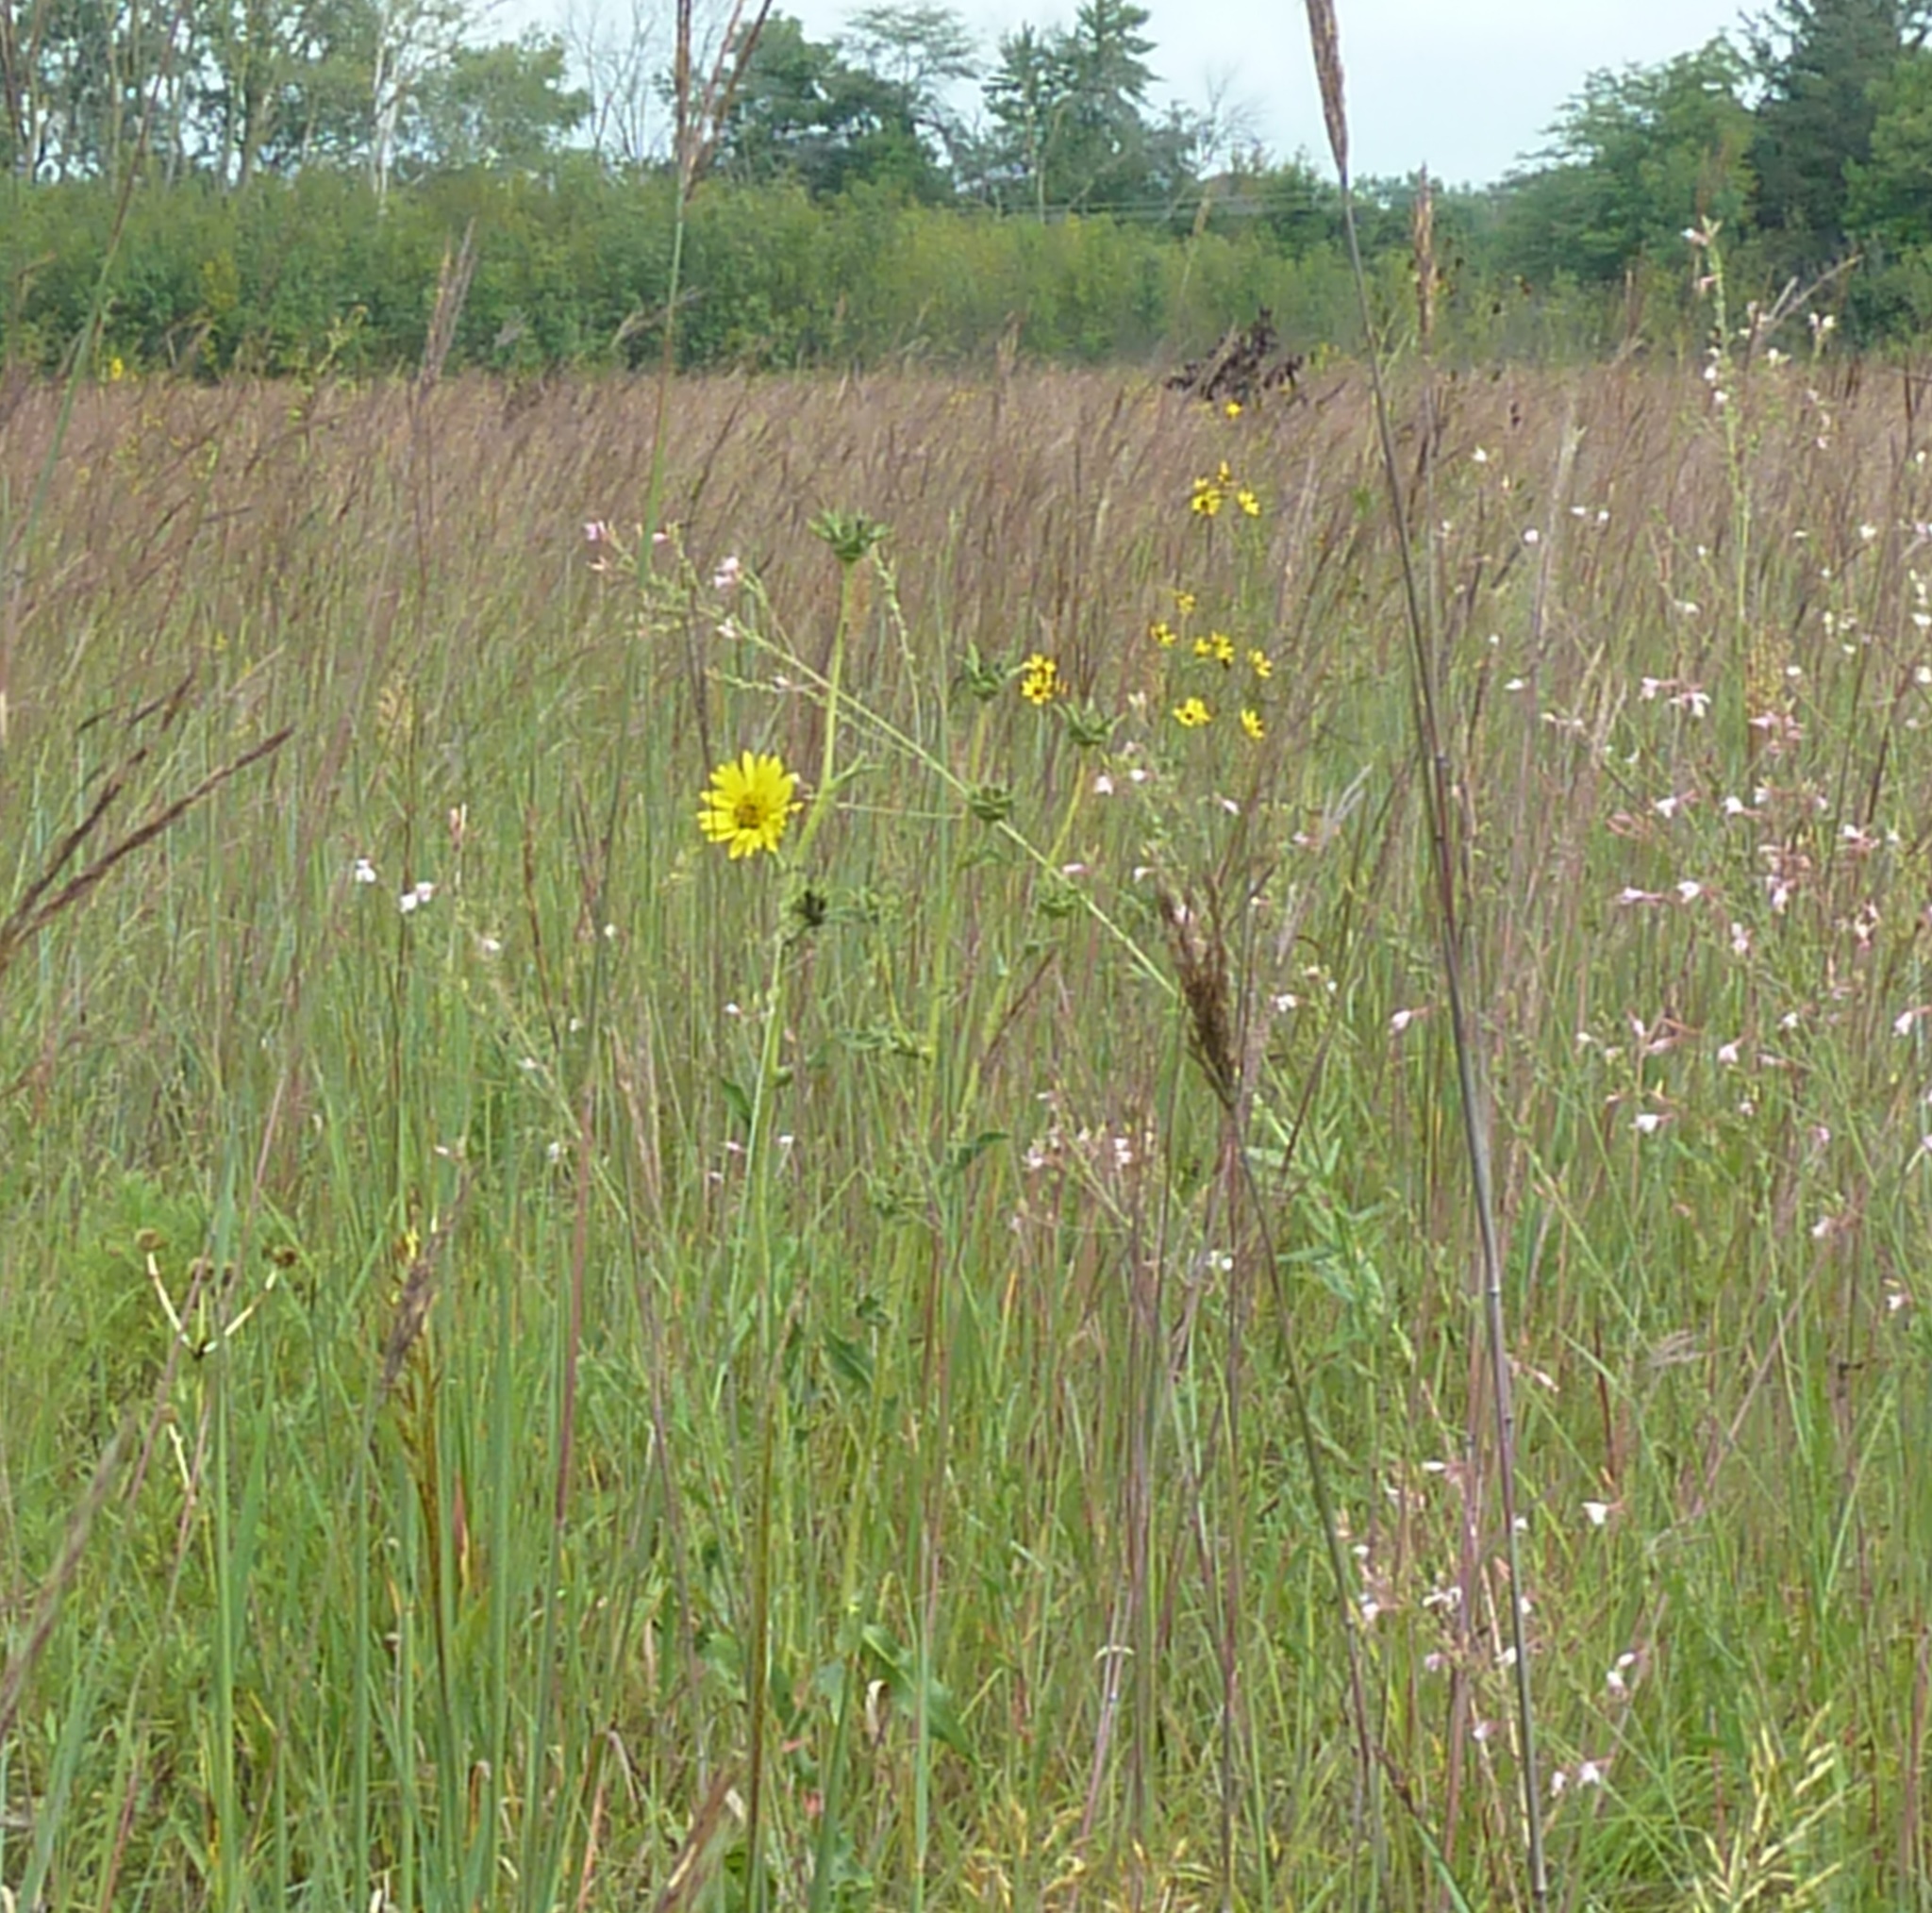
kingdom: Plantae
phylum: Tracheophyta
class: Magnoliopsida
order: Asterales
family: Asteraceae
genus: Silphium
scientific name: Silphium laciniatum
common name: Polarplant
